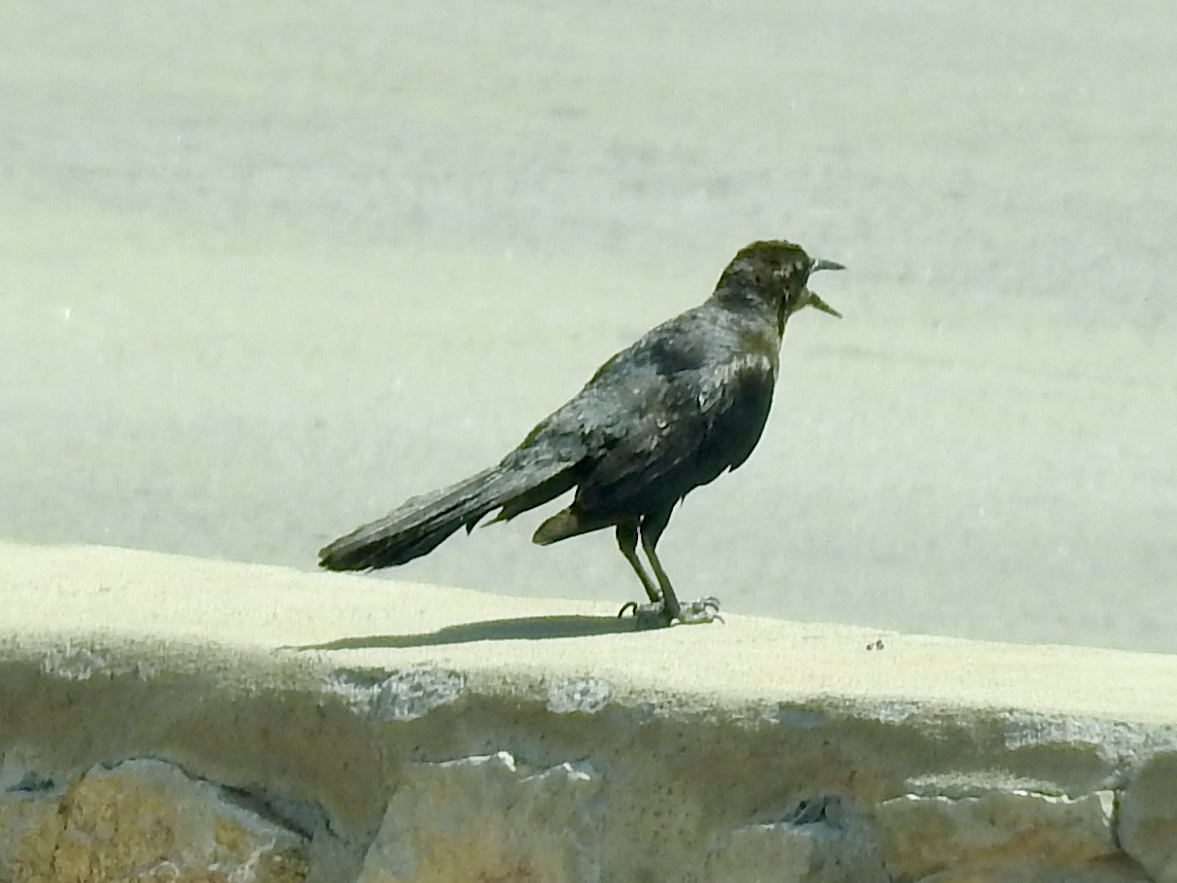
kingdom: Animalia
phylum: Chordata
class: Aves
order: Passeriformes
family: Icteridae
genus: Quiscalus
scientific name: Quiscalus mexicanus
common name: Great-tailed grackle
